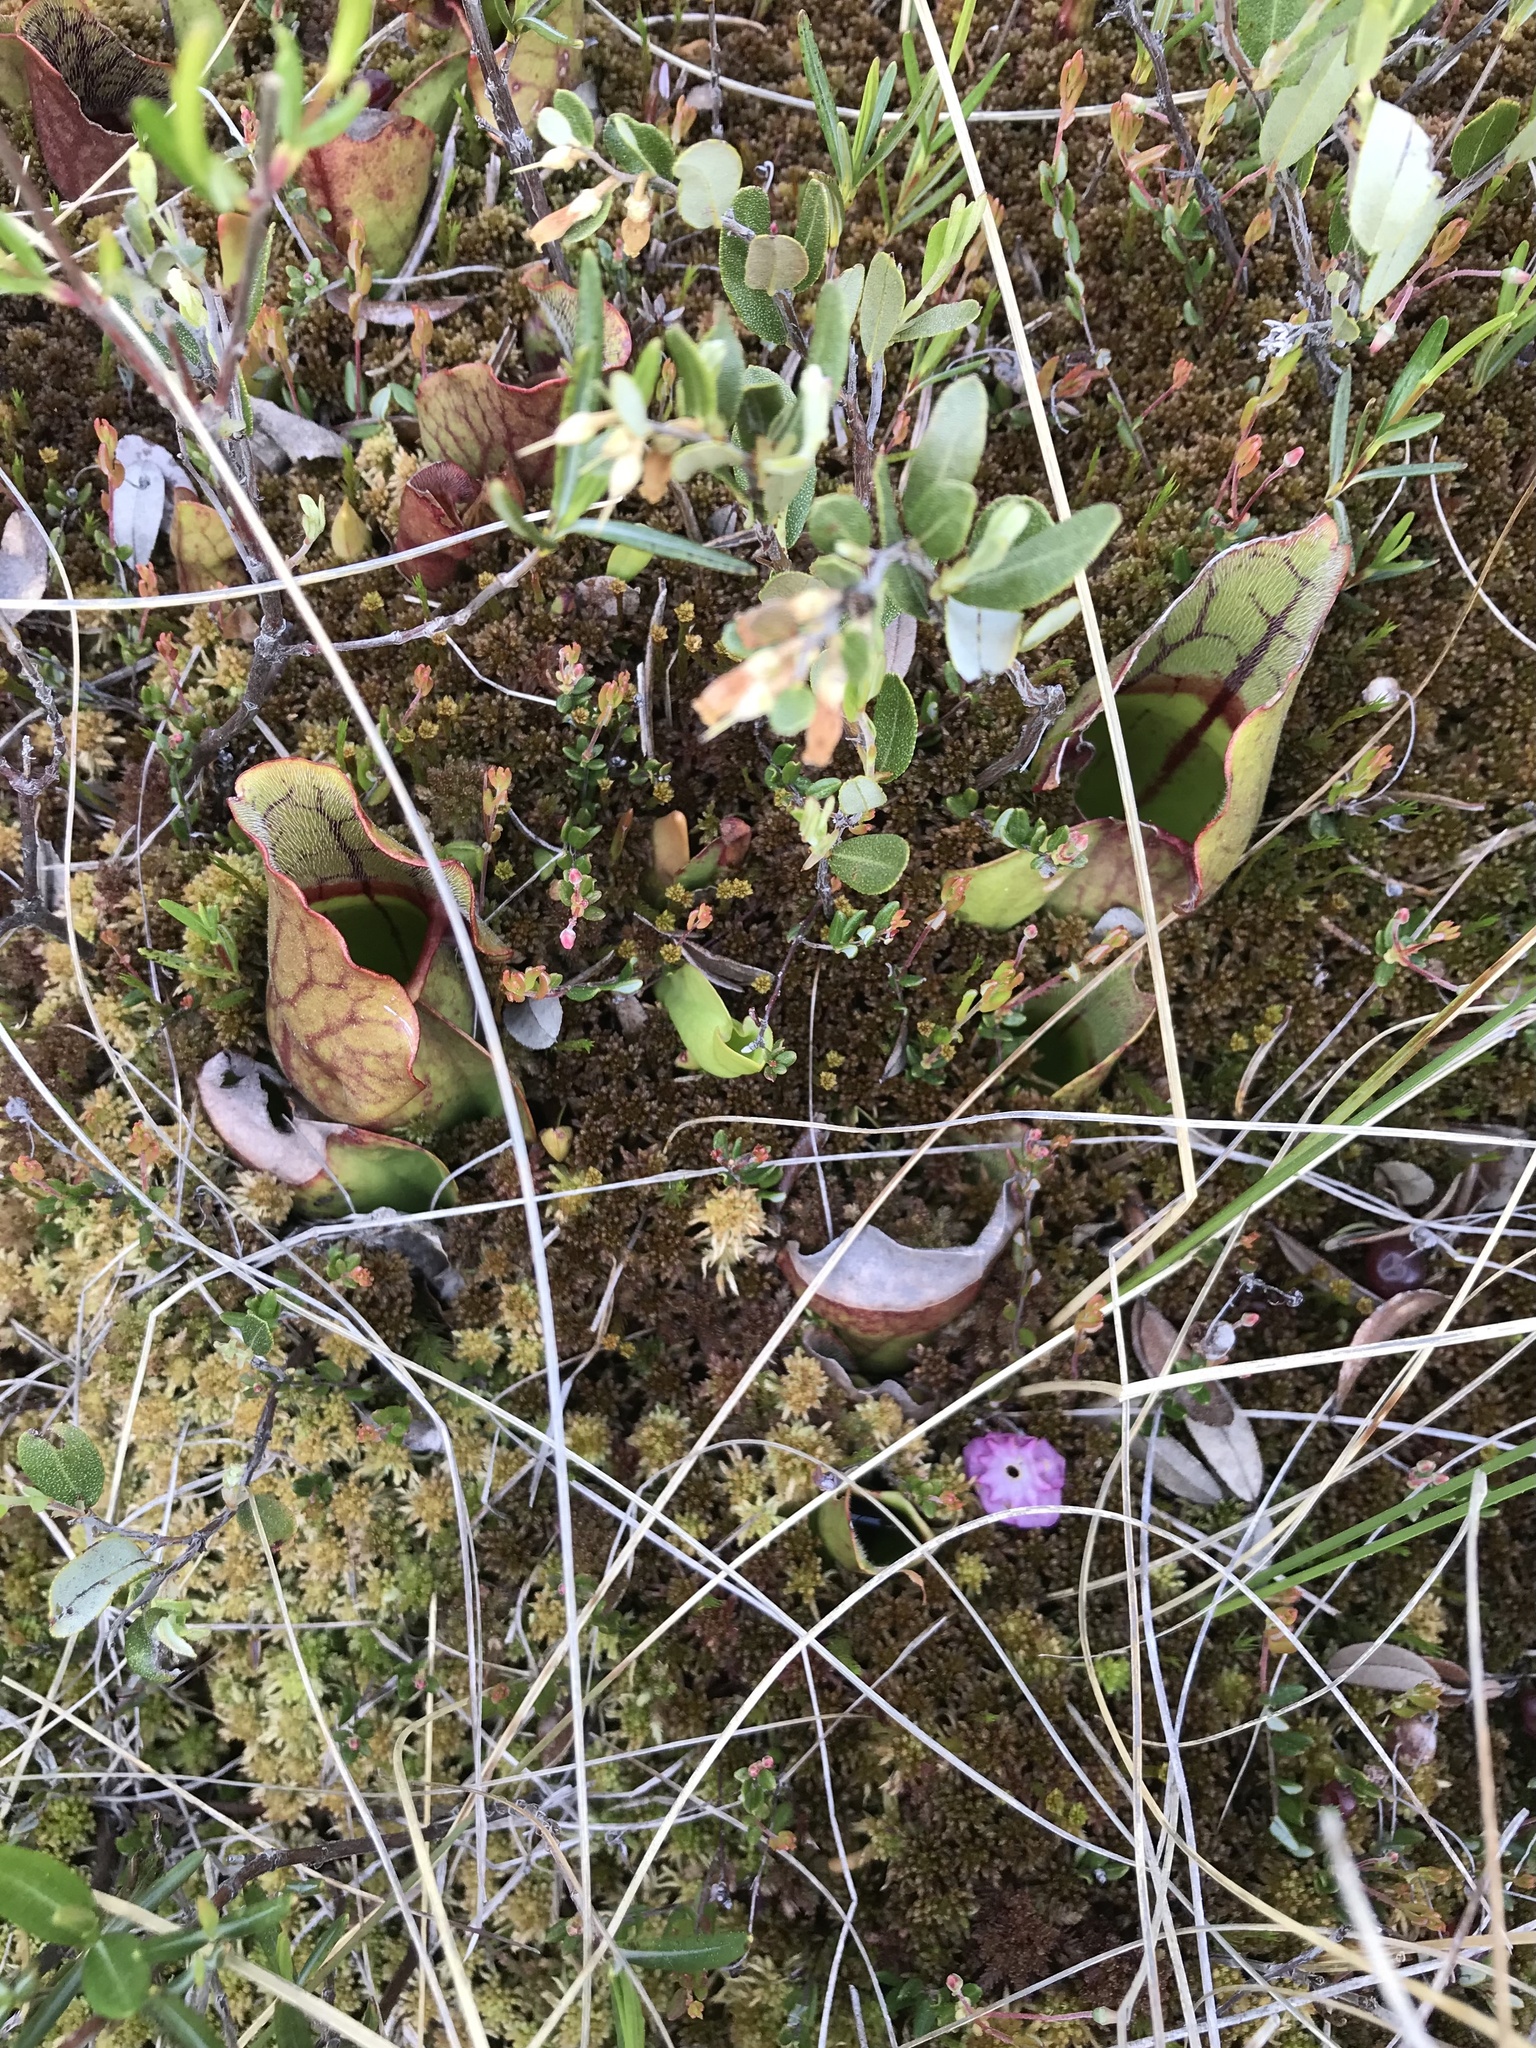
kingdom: Plantae
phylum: Tracheophyta
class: Magnoliopsida
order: Ericales
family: Sarraceniaceae
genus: Sarracenia
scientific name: Sarracenia purpurea
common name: Pitcherplant
